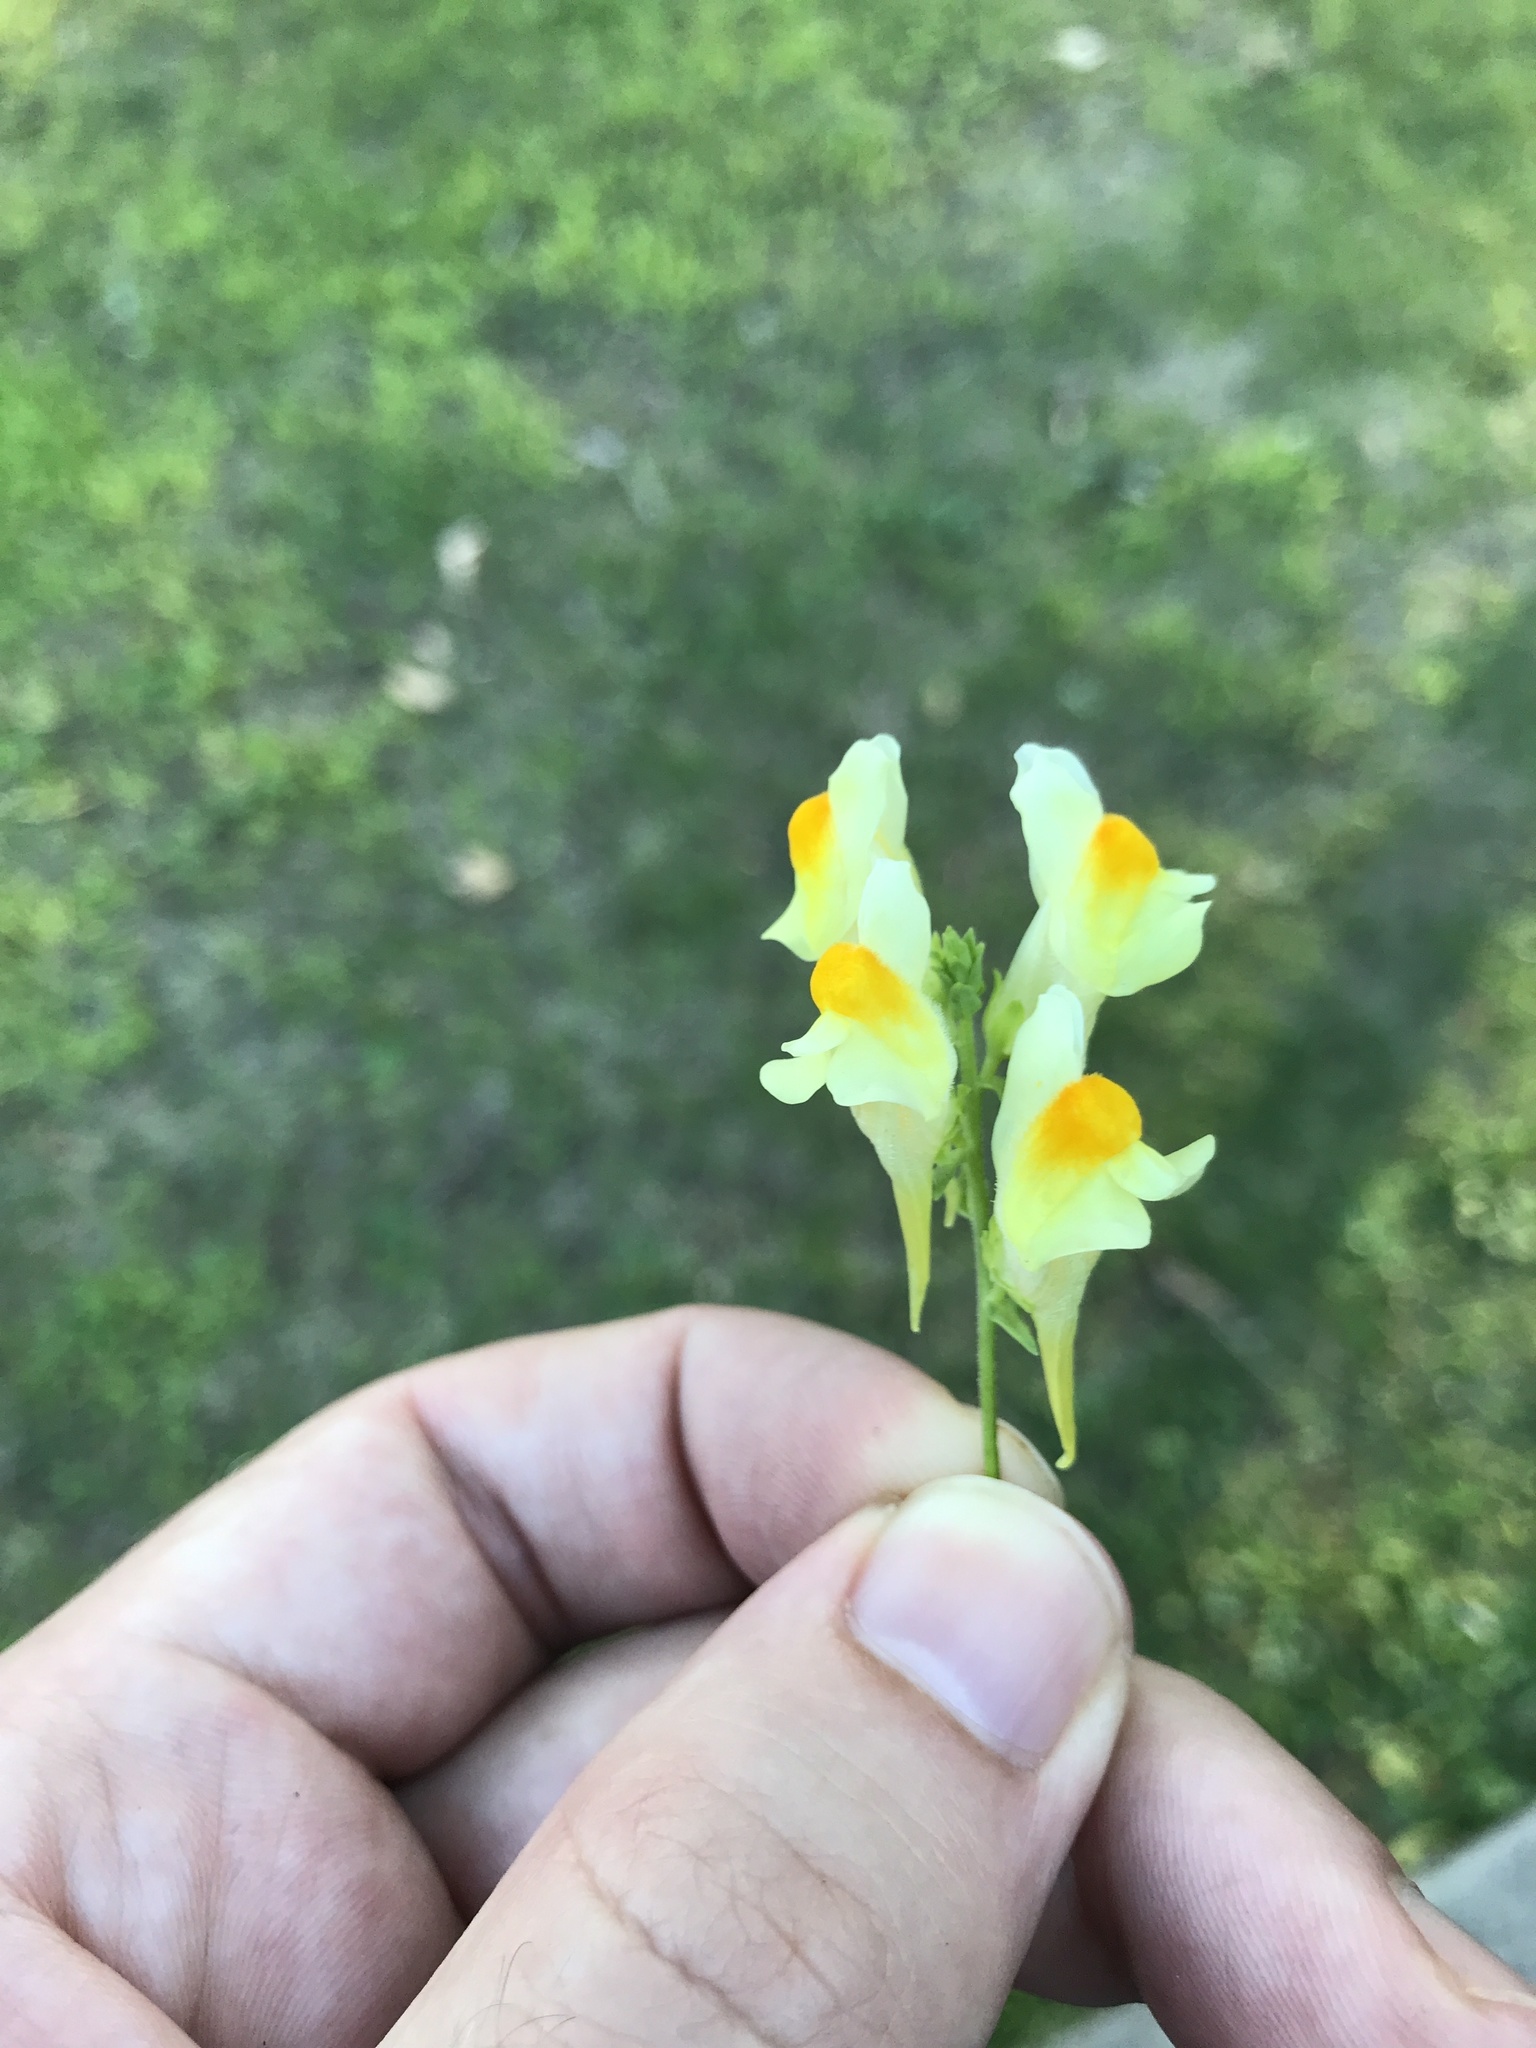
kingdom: Plantae
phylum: Tracheophyta
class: Magnoliopsida
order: Lamiales
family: Plantaginaceae
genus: Linaria
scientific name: Linaria vulgaris
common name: Butter and eggs
